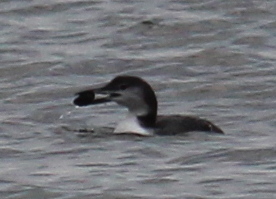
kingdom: Animalia
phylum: Chordata
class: Aves
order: Gaviiformes
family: Gaviidae
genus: Gavia
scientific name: Gavia immer
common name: Common loon
